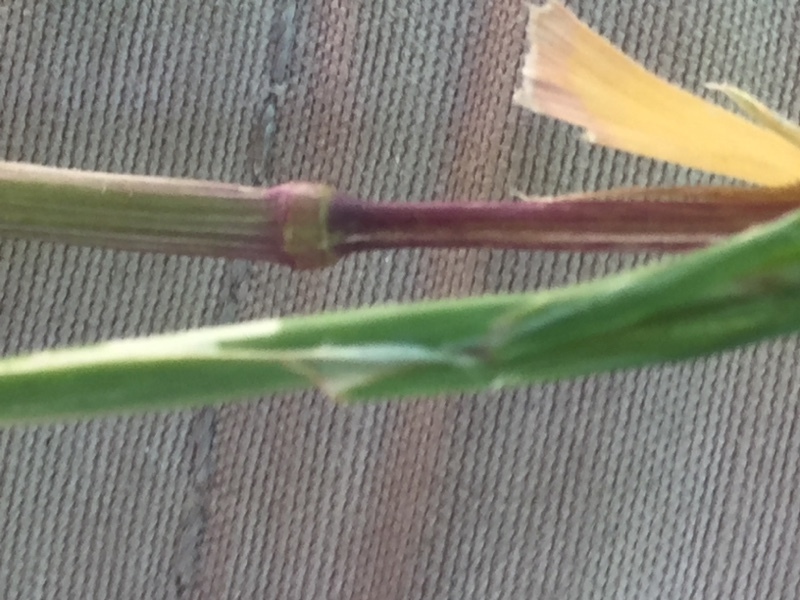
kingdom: Plantae
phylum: Tracheophyta
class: Liliopsida
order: Poales
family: Poaceae
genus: Cynosurus
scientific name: Cynosurus echinatus
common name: Rough dog's-tail
